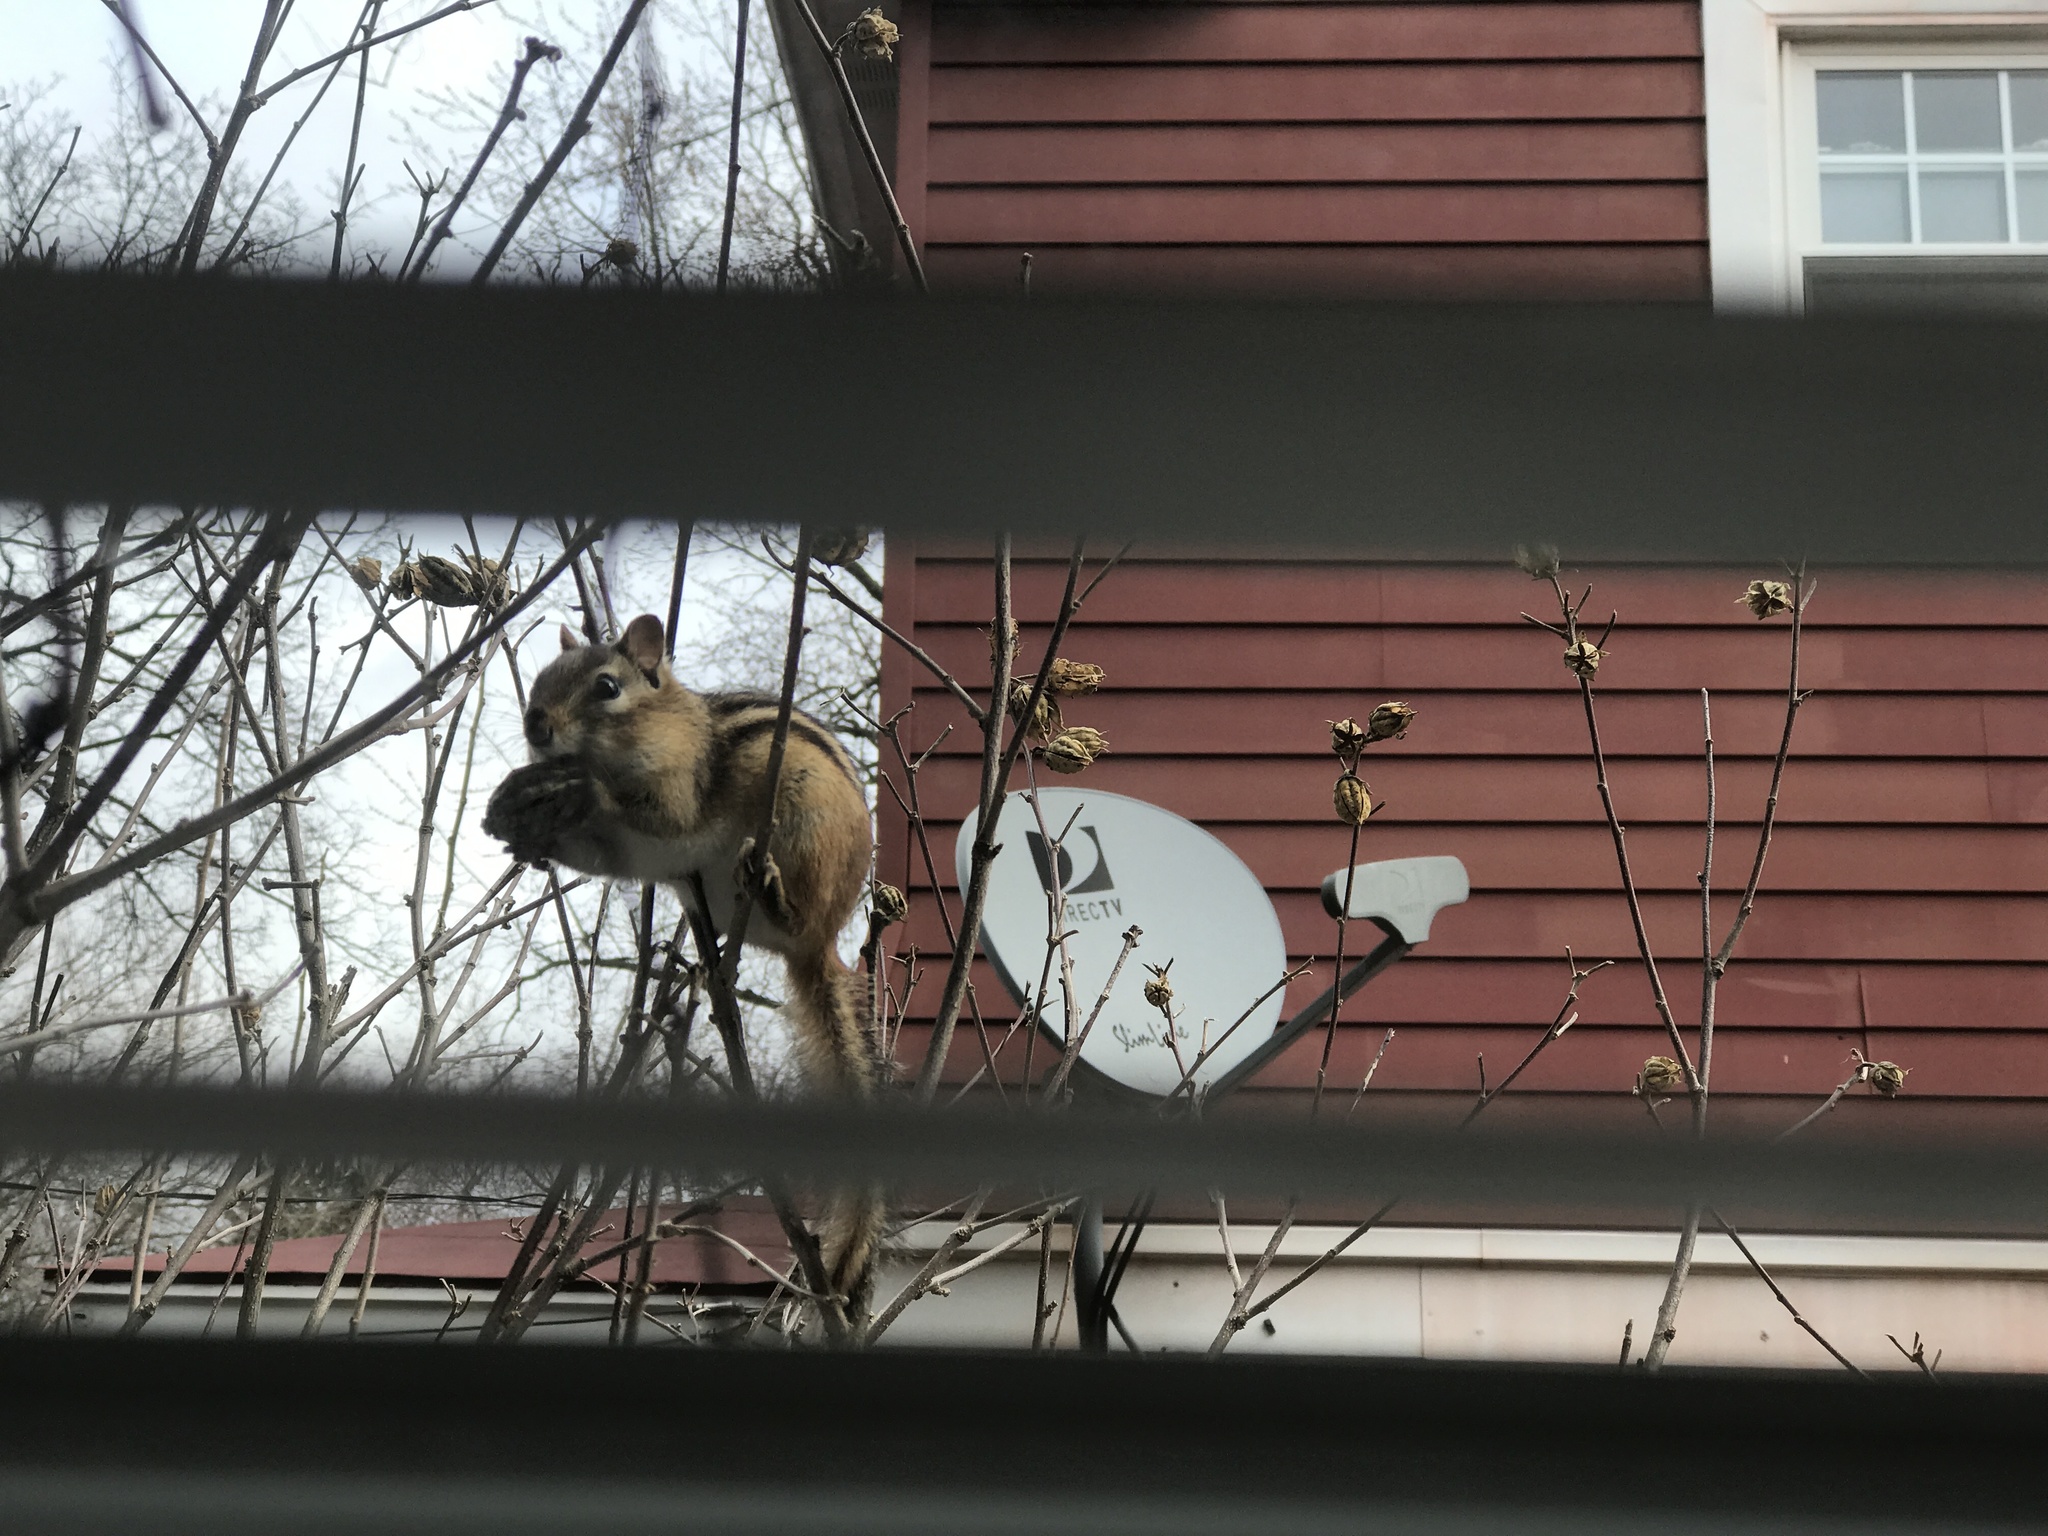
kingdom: Animalia
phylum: Chordata
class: Mammalia
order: Rodentia
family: Sciuridae
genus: Tamias
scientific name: Tamias striatus
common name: Eastern chipmunk
